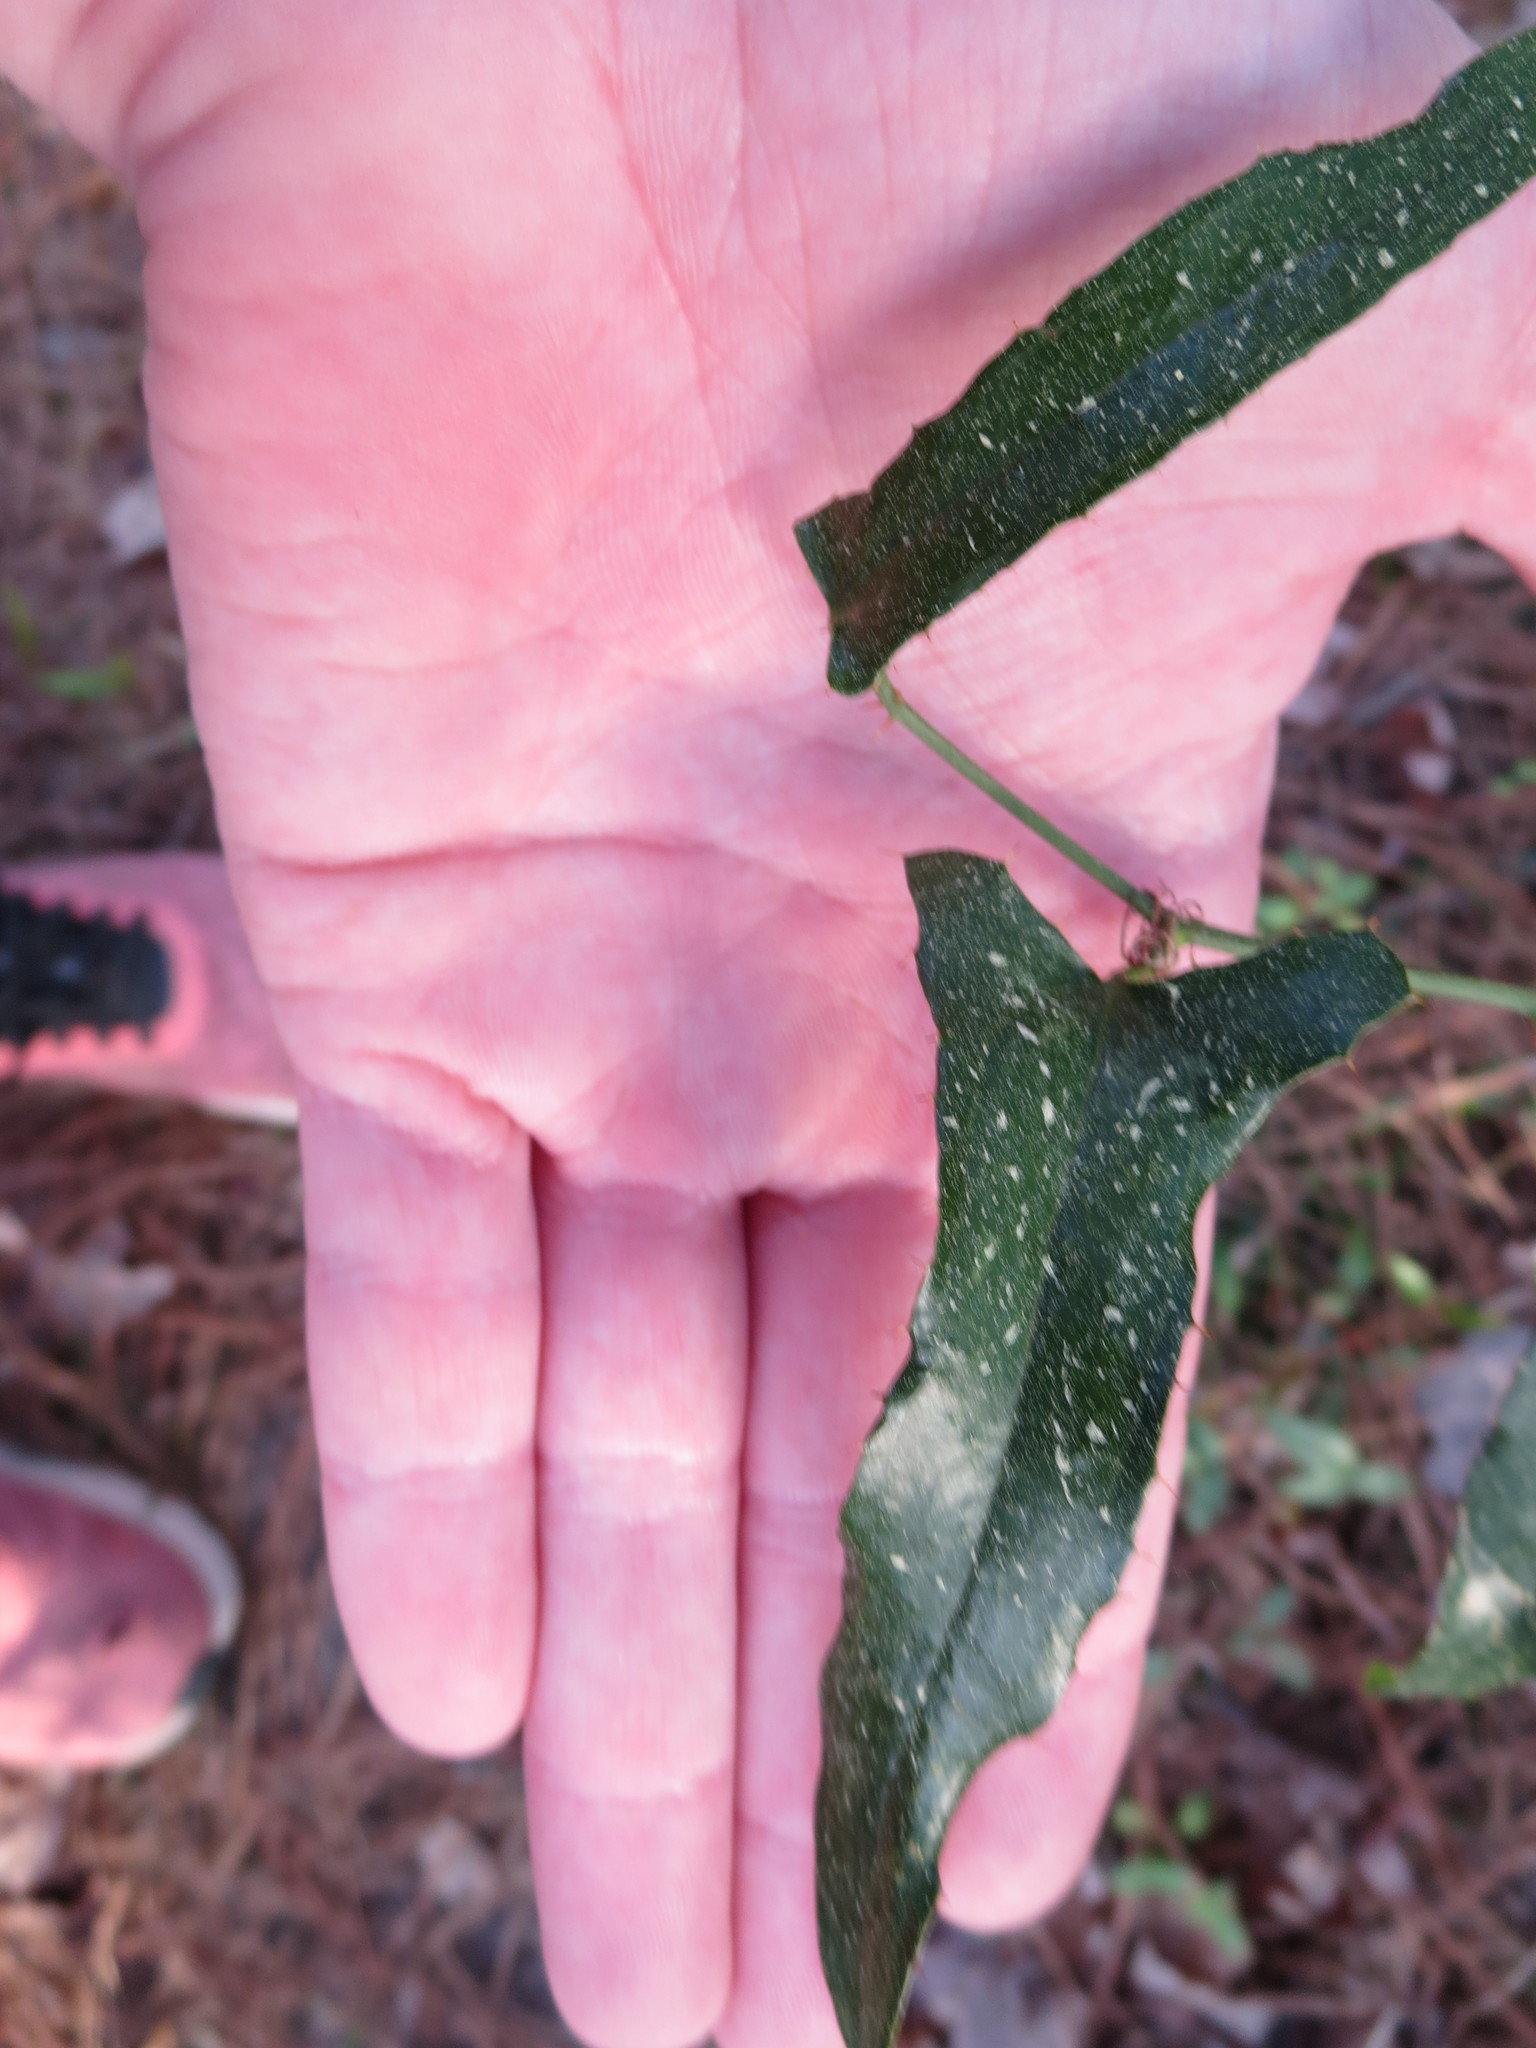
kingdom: Plantae
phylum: Tracheophyta
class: Liliopsida
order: Liliales
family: Smilacaceae
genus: Smilax
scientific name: Smilax bona-nox
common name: Catbrier
